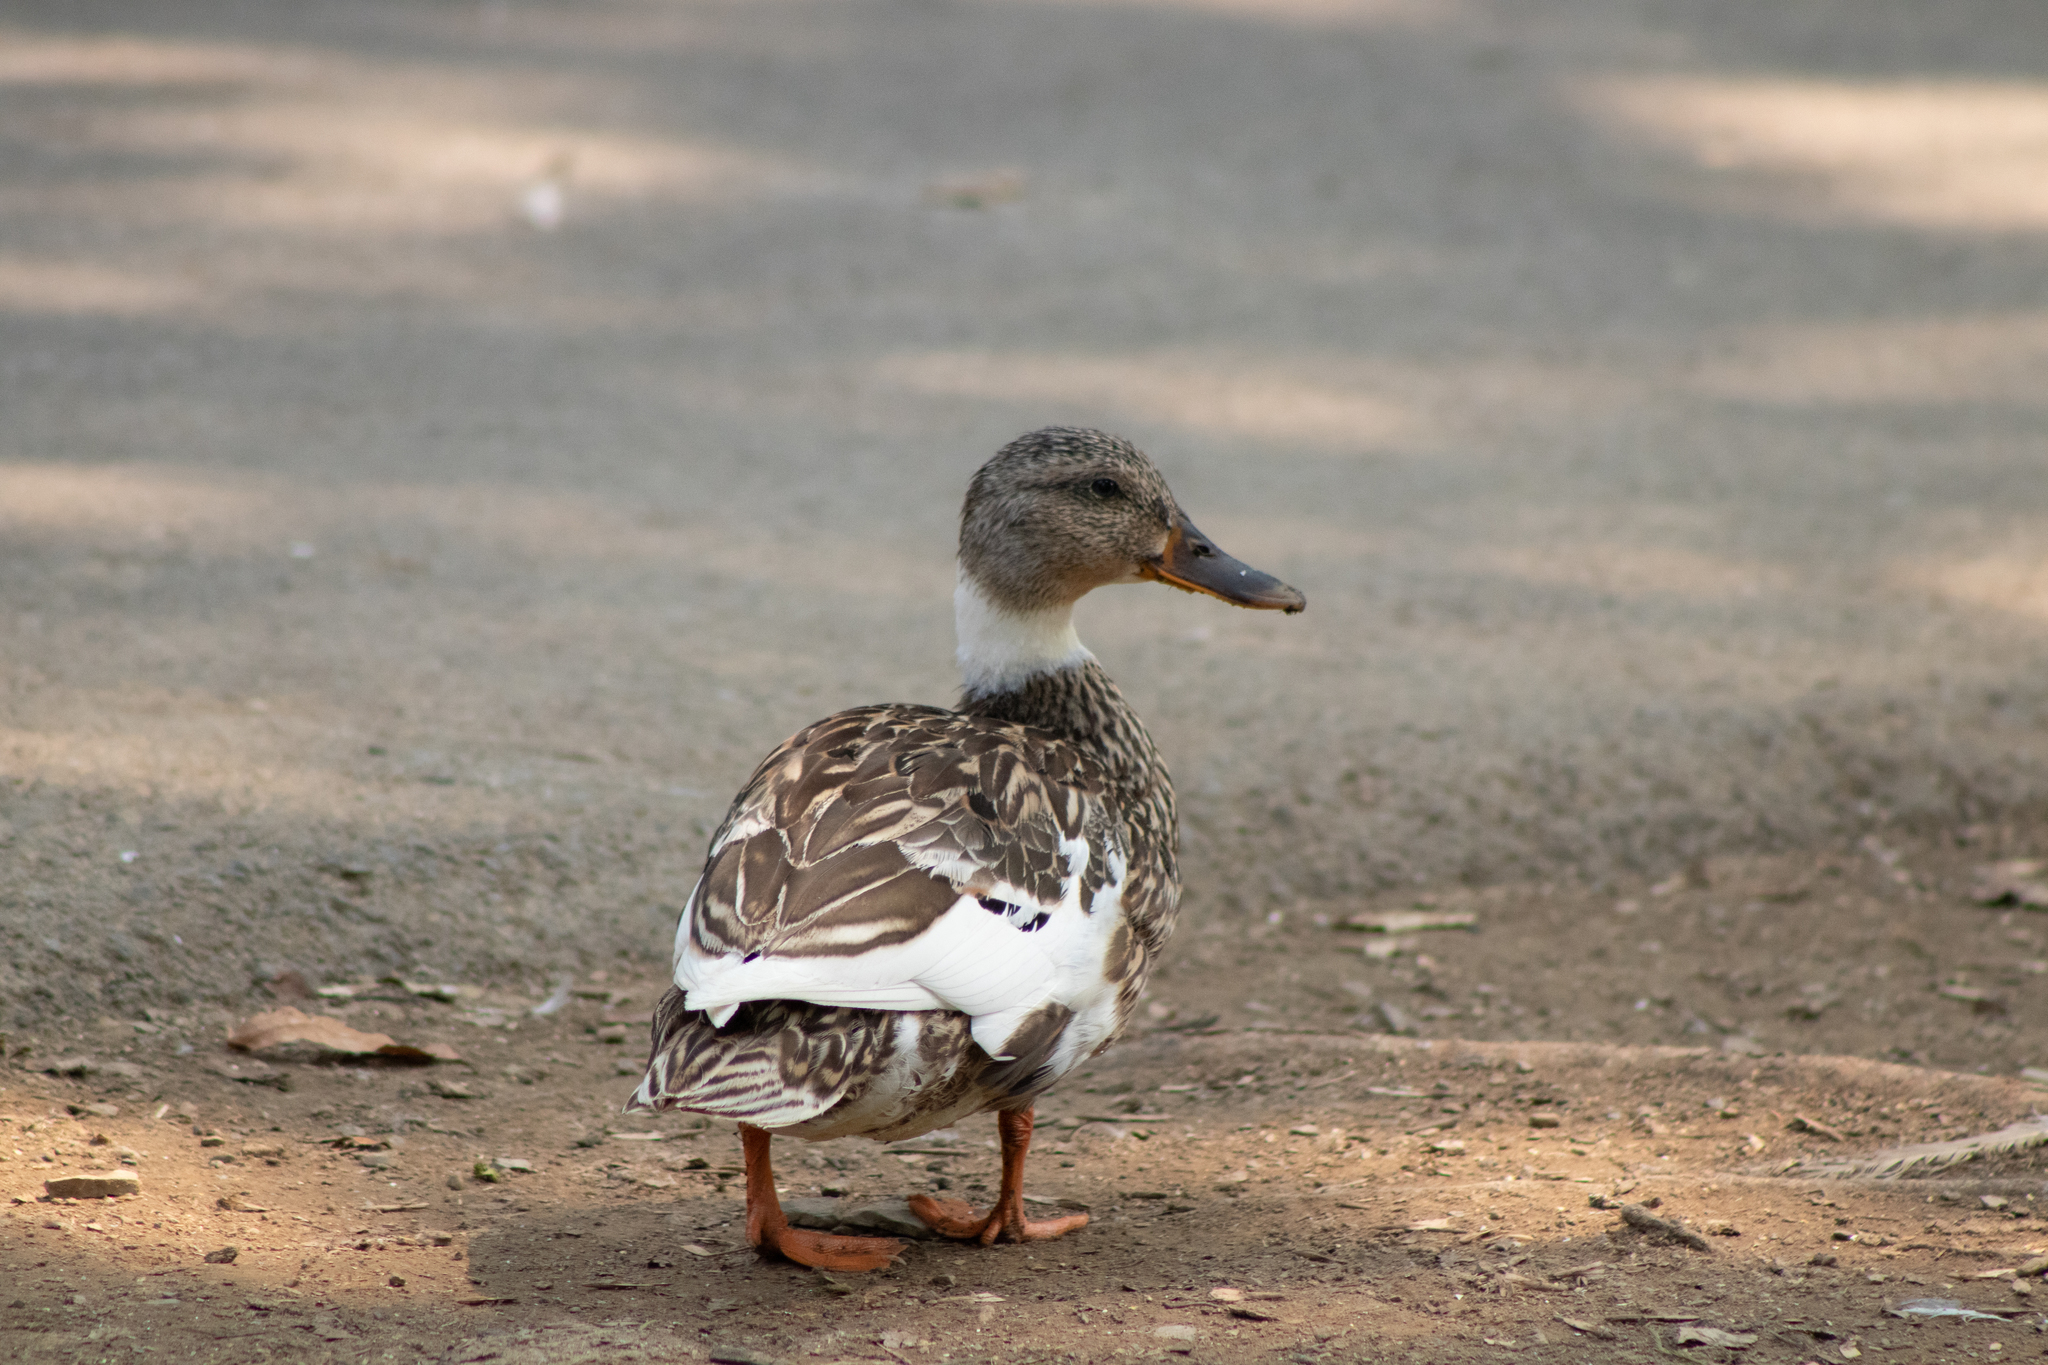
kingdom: Animalia
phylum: Chordata
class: Aves
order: Anseriformes
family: Anatidae
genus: Anas
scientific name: Anas platyrhynchos
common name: Mallard
